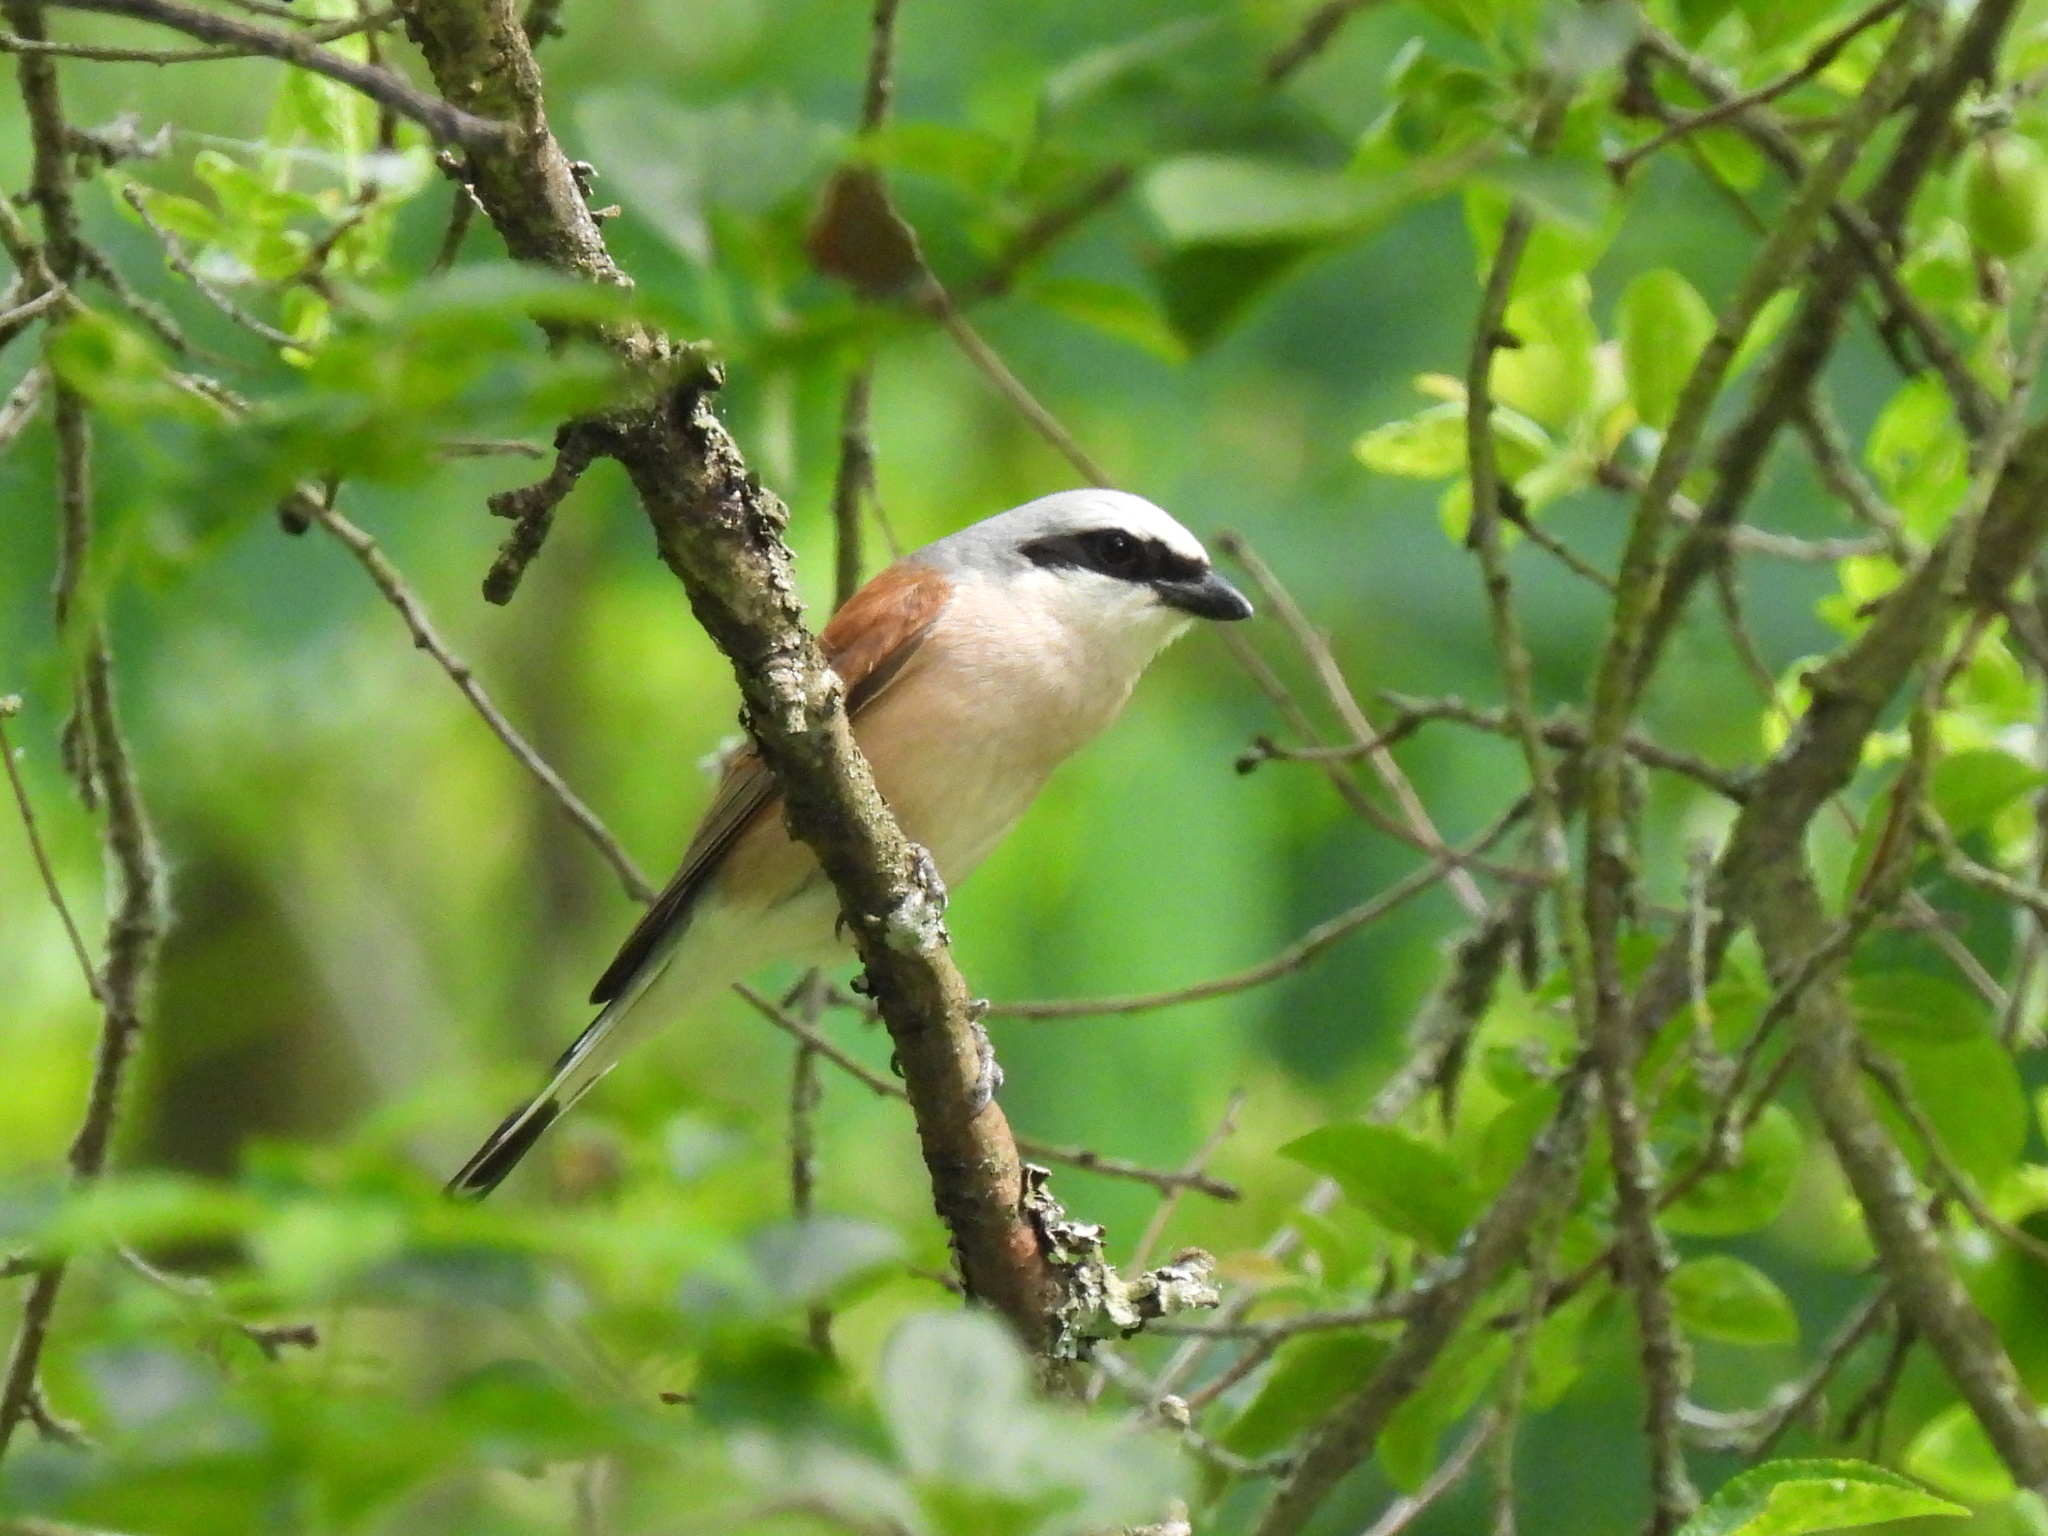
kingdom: Animalia
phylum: Chordata
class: Aves
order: Passeriformes
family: Laniidae
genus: Lanius
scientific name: Lanius collurio
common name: Red-backed shrike
